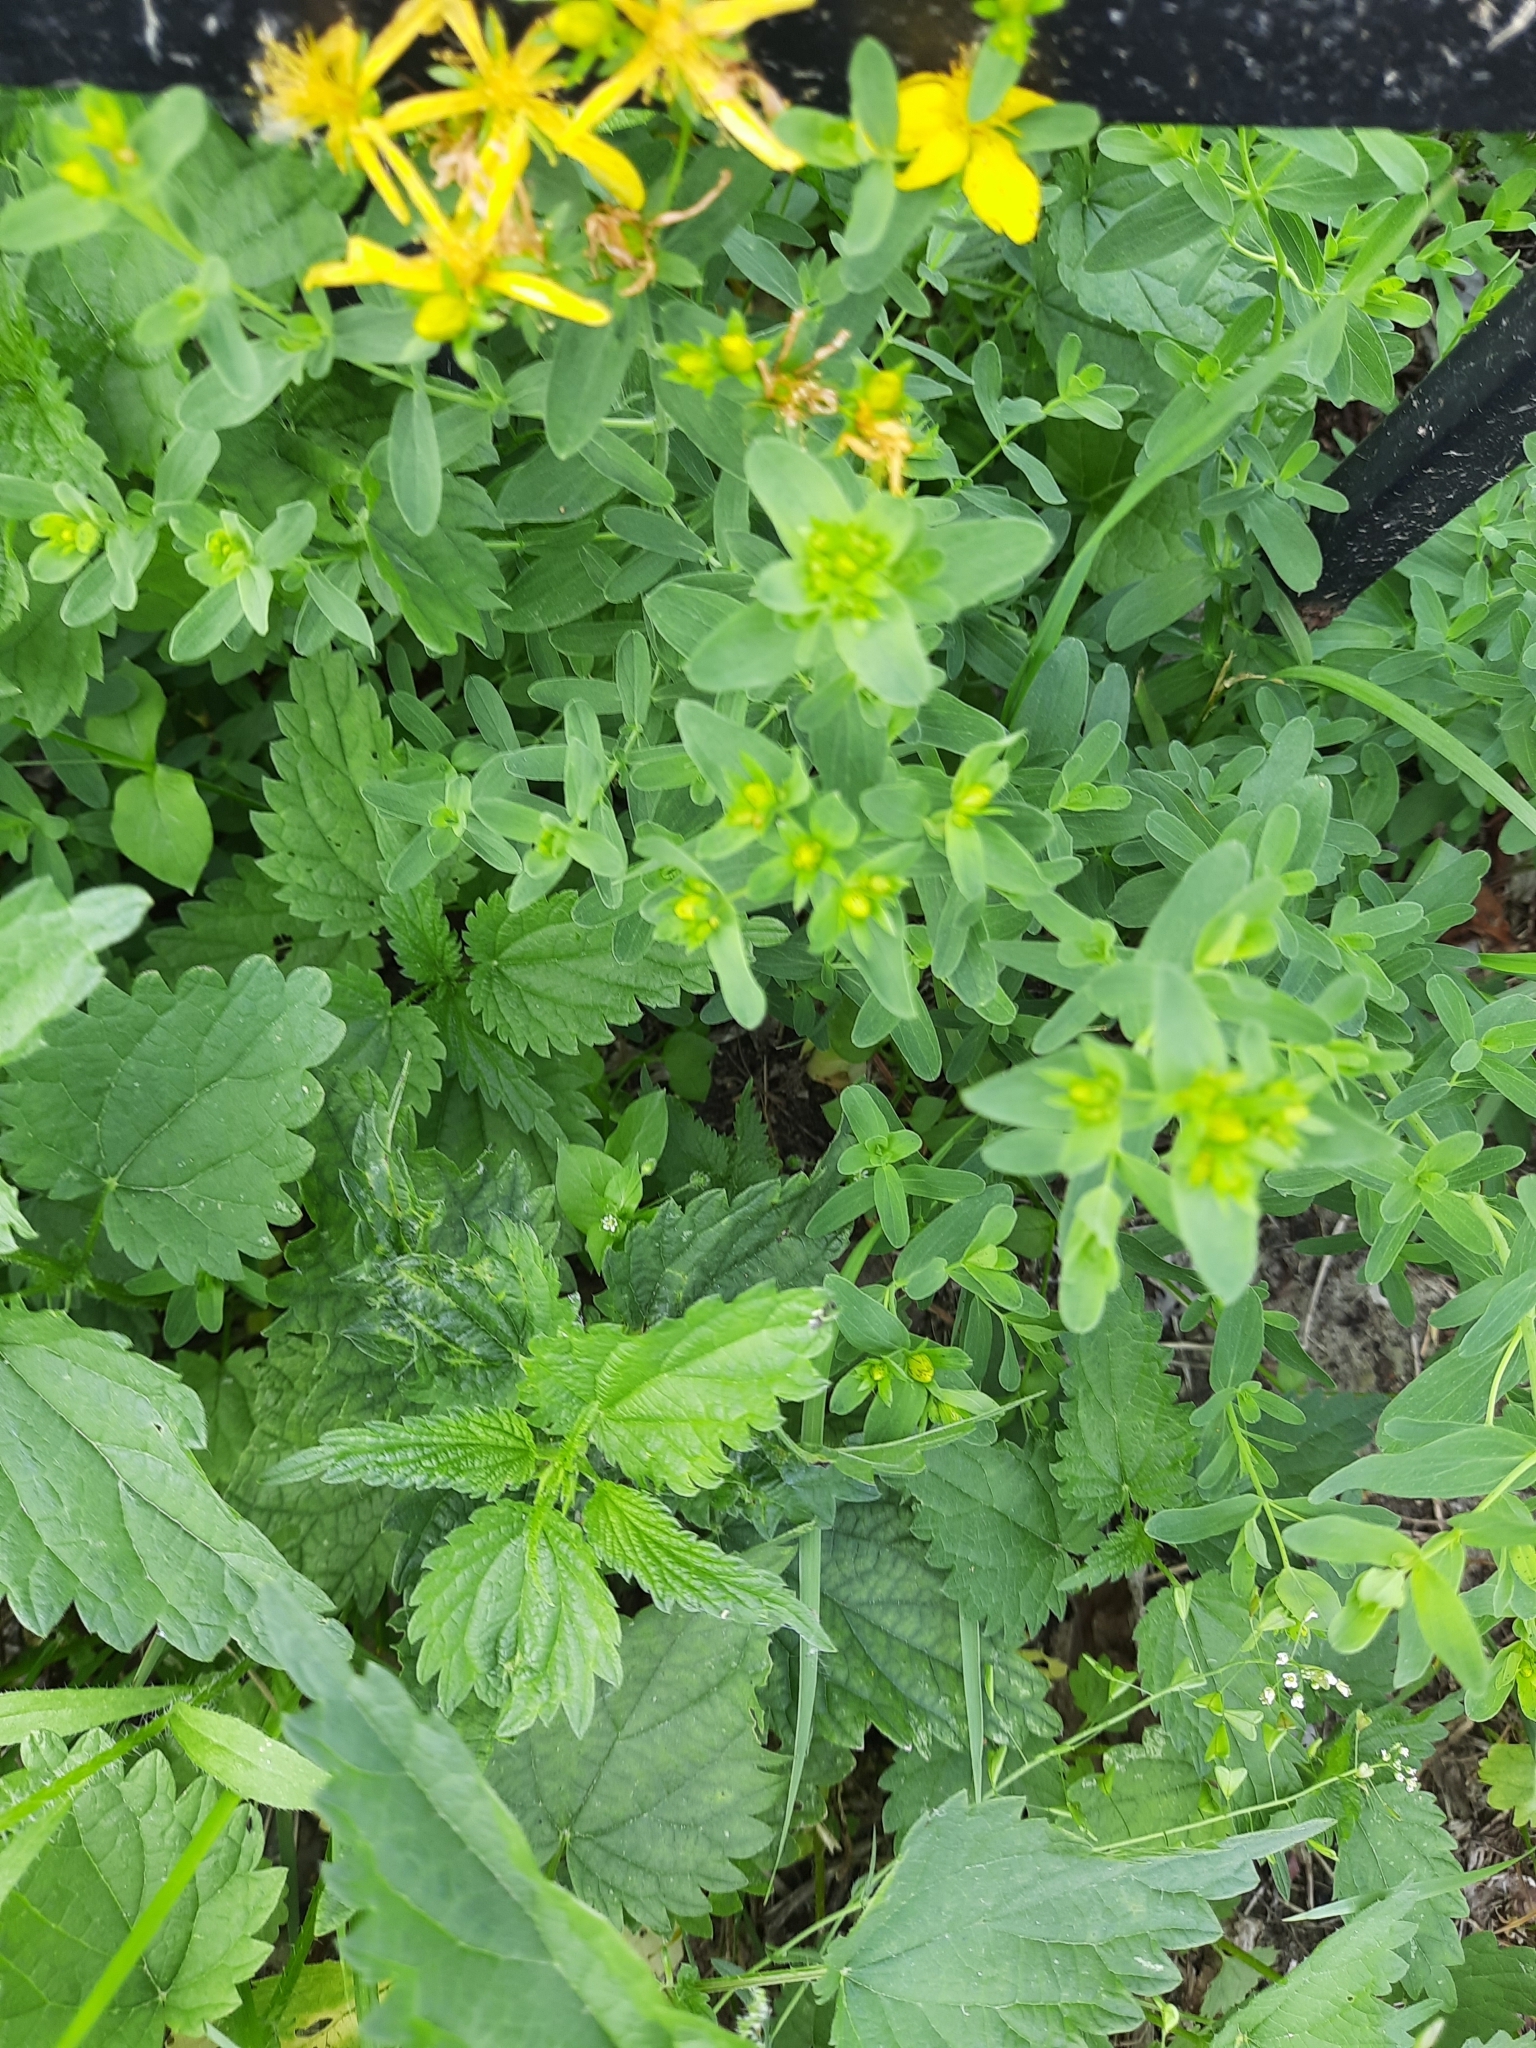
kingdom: Plantae
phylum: Tracheophyta
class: Magnoliopsida
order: Malpighiales
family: Hypericaceae
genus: Hypericum
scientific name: Hypericum perforatum
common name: Common st. johnswort
